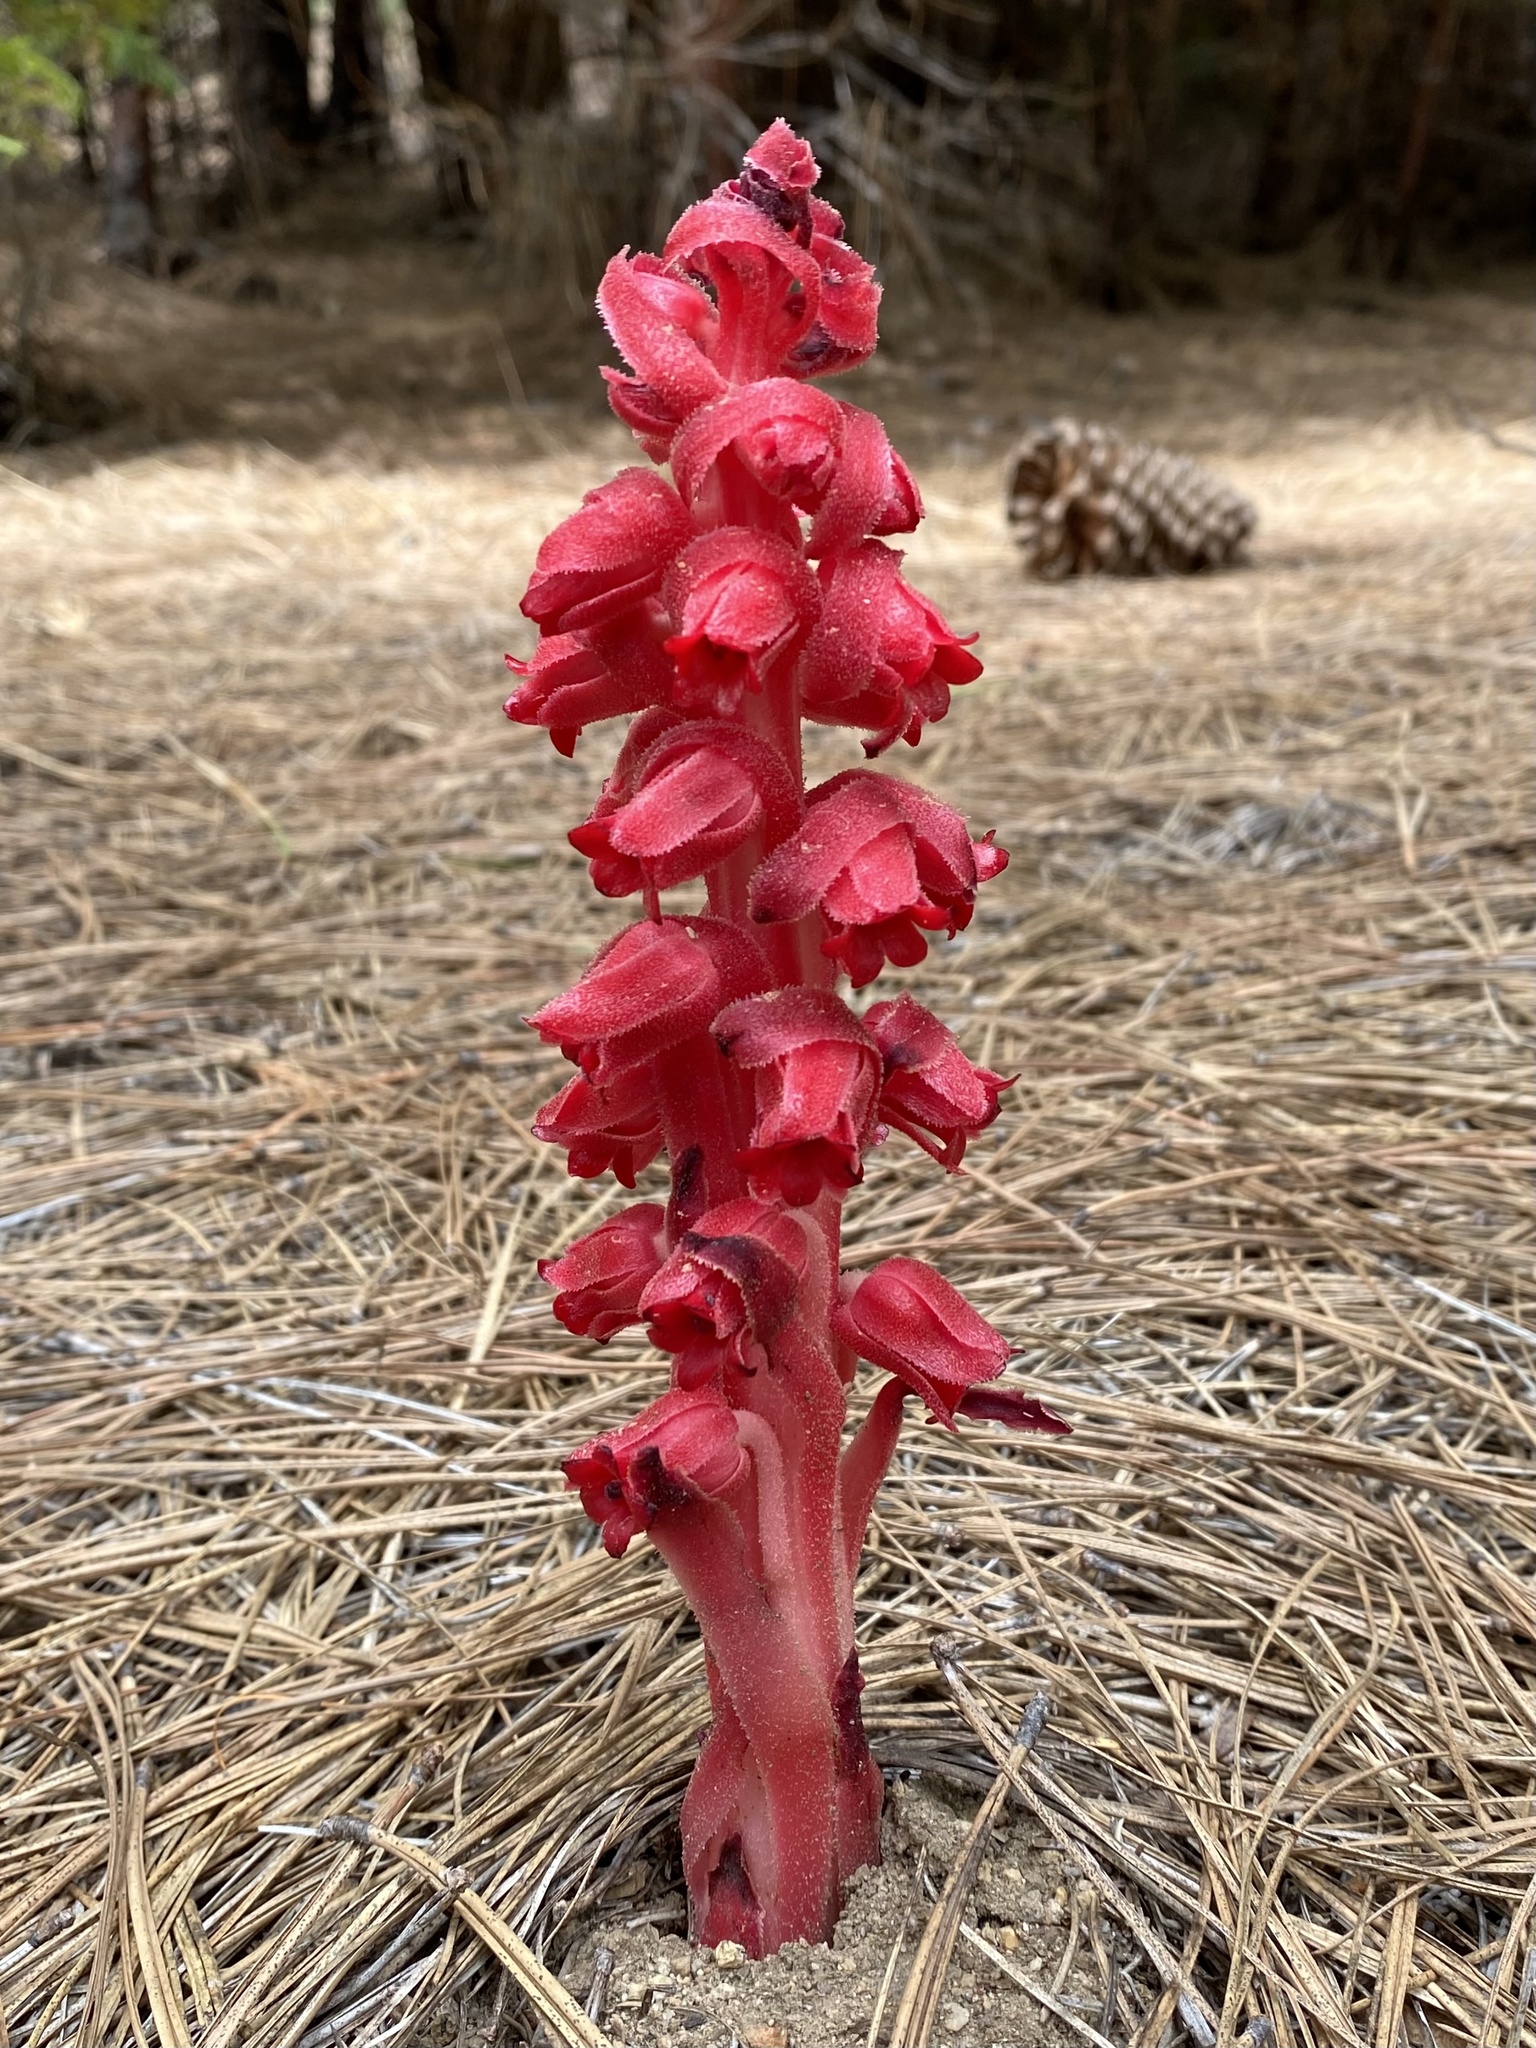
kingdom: Plantae
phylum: Tracheophyta
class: Magnoliopsida
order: Ericales
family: Ericaceae
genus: Sarcodes
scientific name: Sarcodes sanguinea
